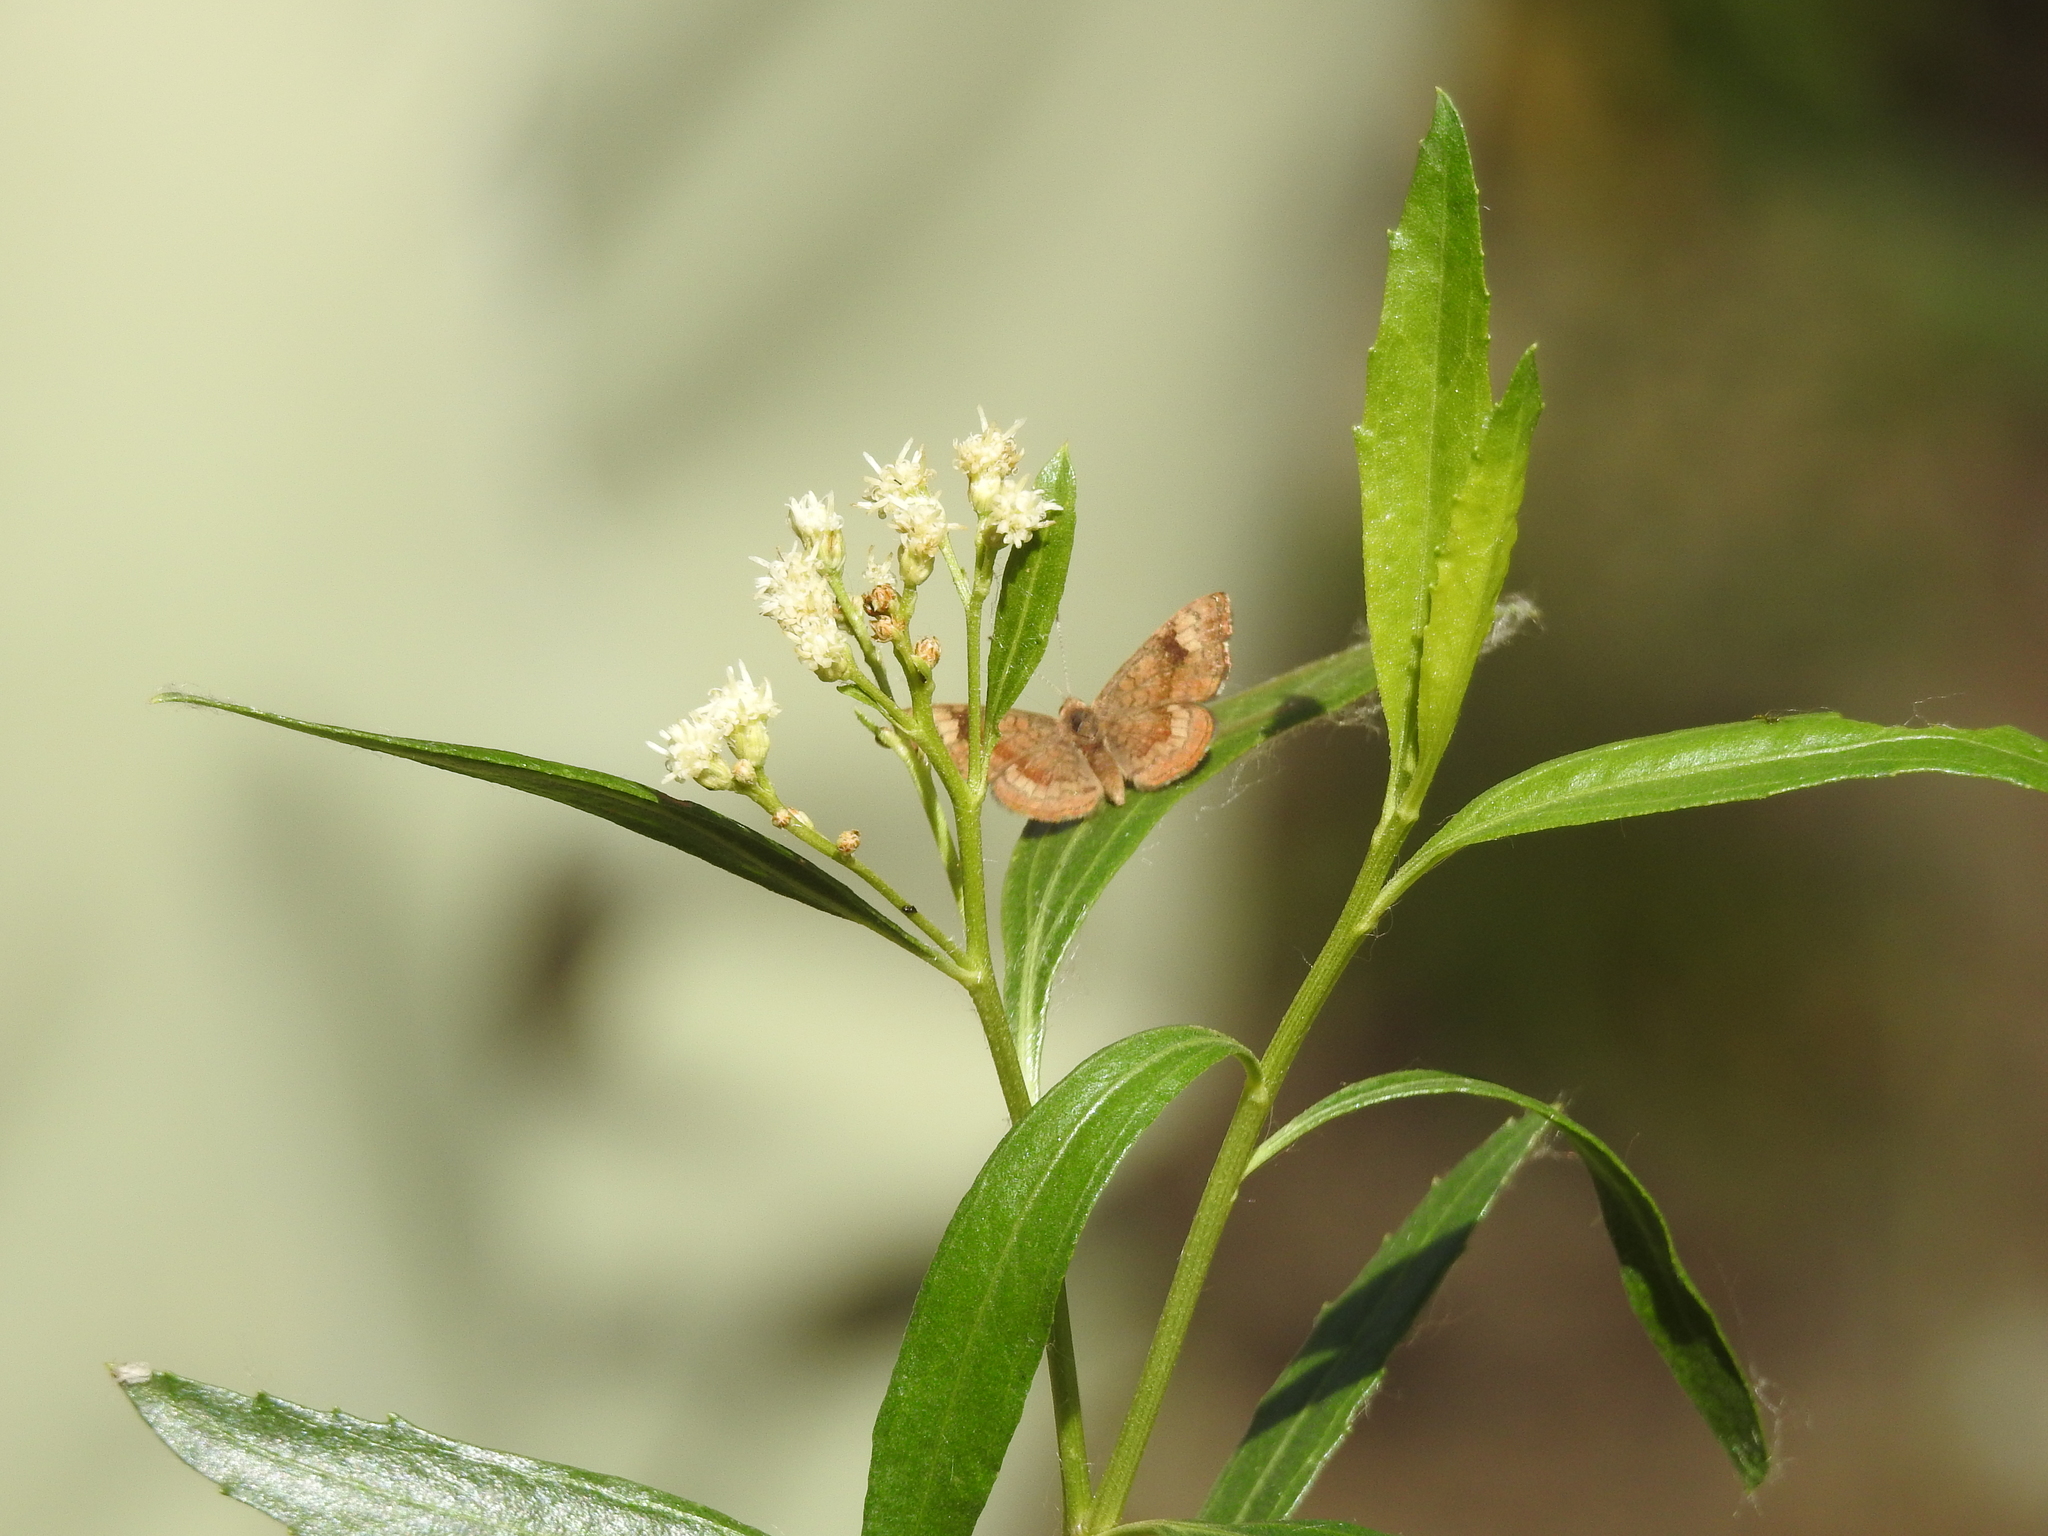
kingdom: Animalia
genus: Calephelis
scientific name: Calephelis nemesis
